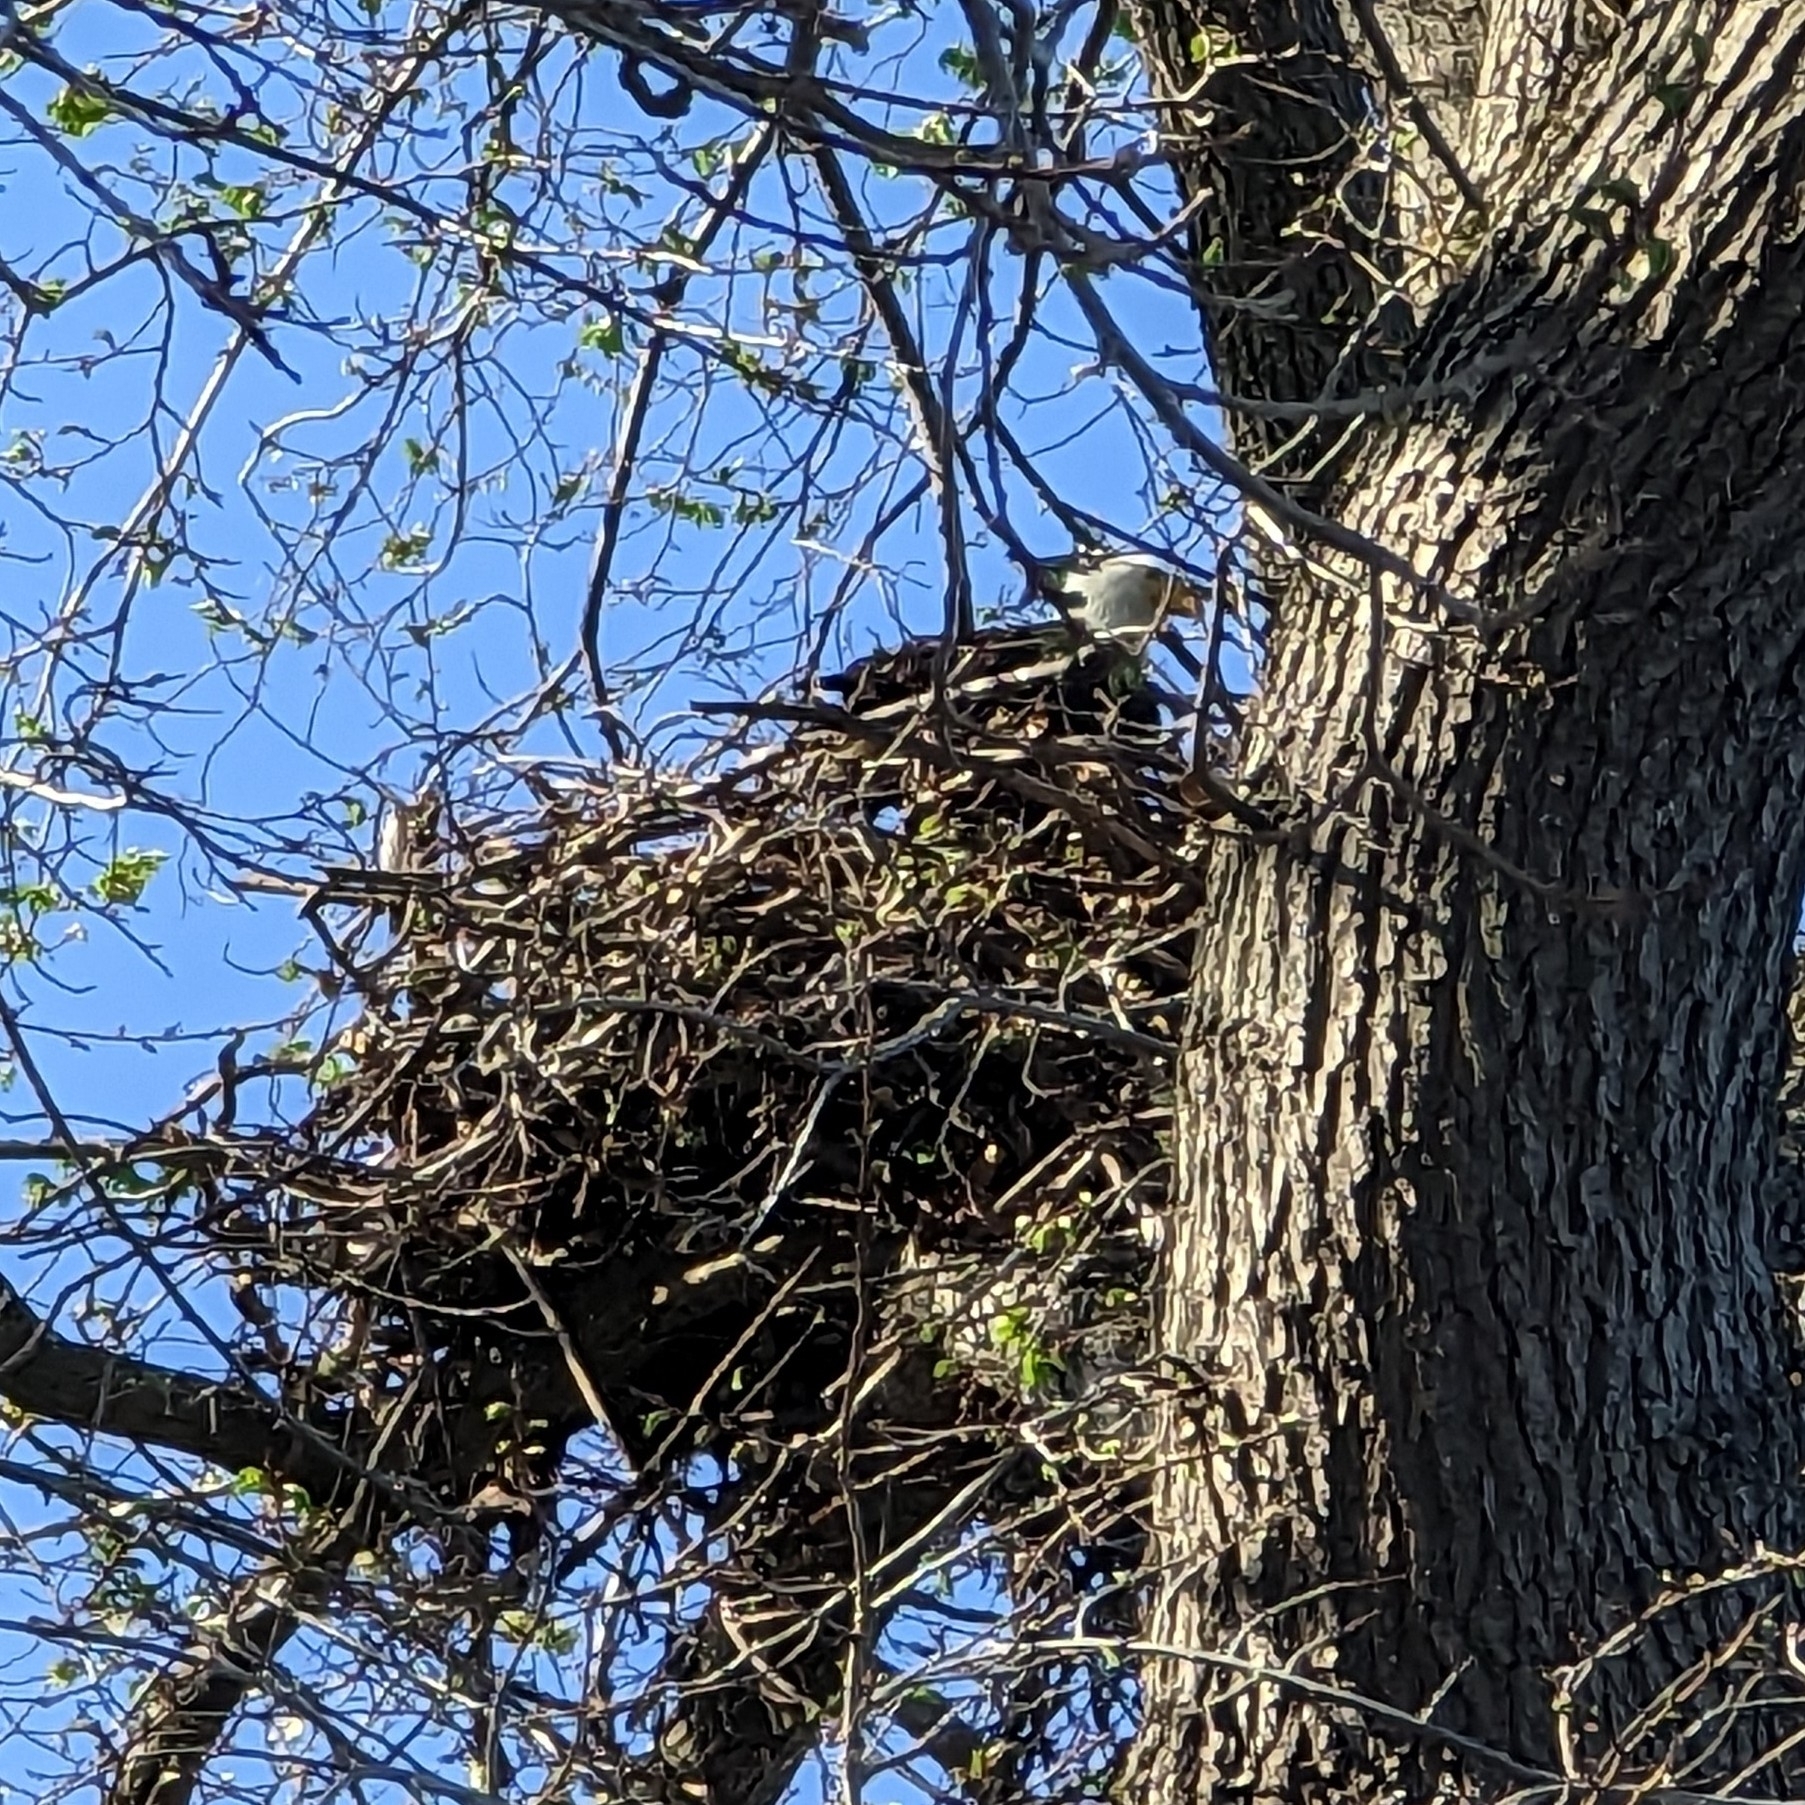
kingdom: Animalia
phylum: Chordata
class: Aves
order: Accipitriformes
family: Accipitridae
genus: Haliaeetus
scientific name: Haliaeetus leucocephalus
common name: Bald eagle
